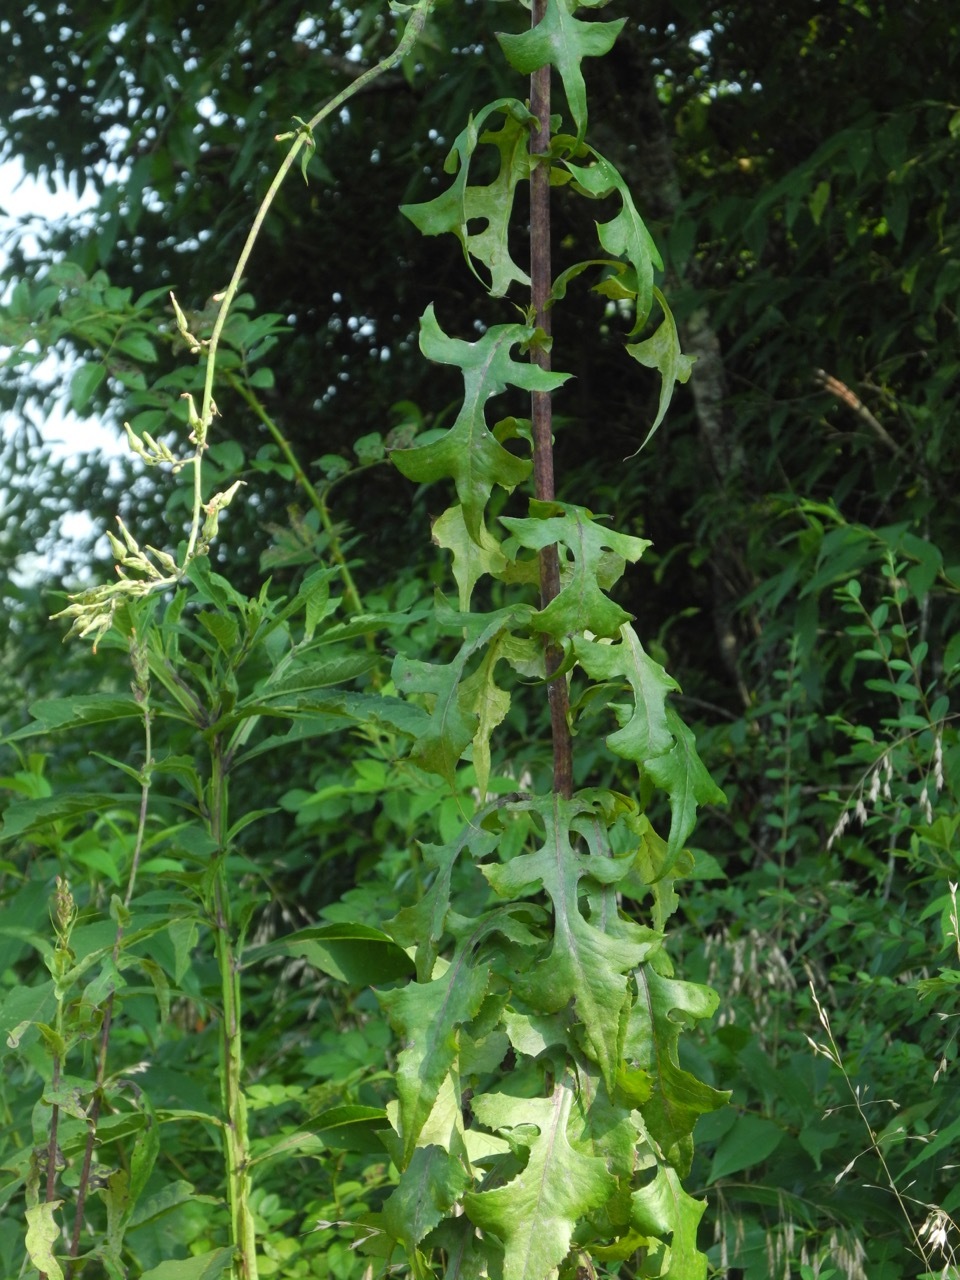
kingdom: Plantae
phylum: Tracheophyta
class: Magnoliopsida
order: Asterales
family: Asteraceae
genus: Lactuca
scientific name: Lactuca canadensis
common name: Canada lettuce
